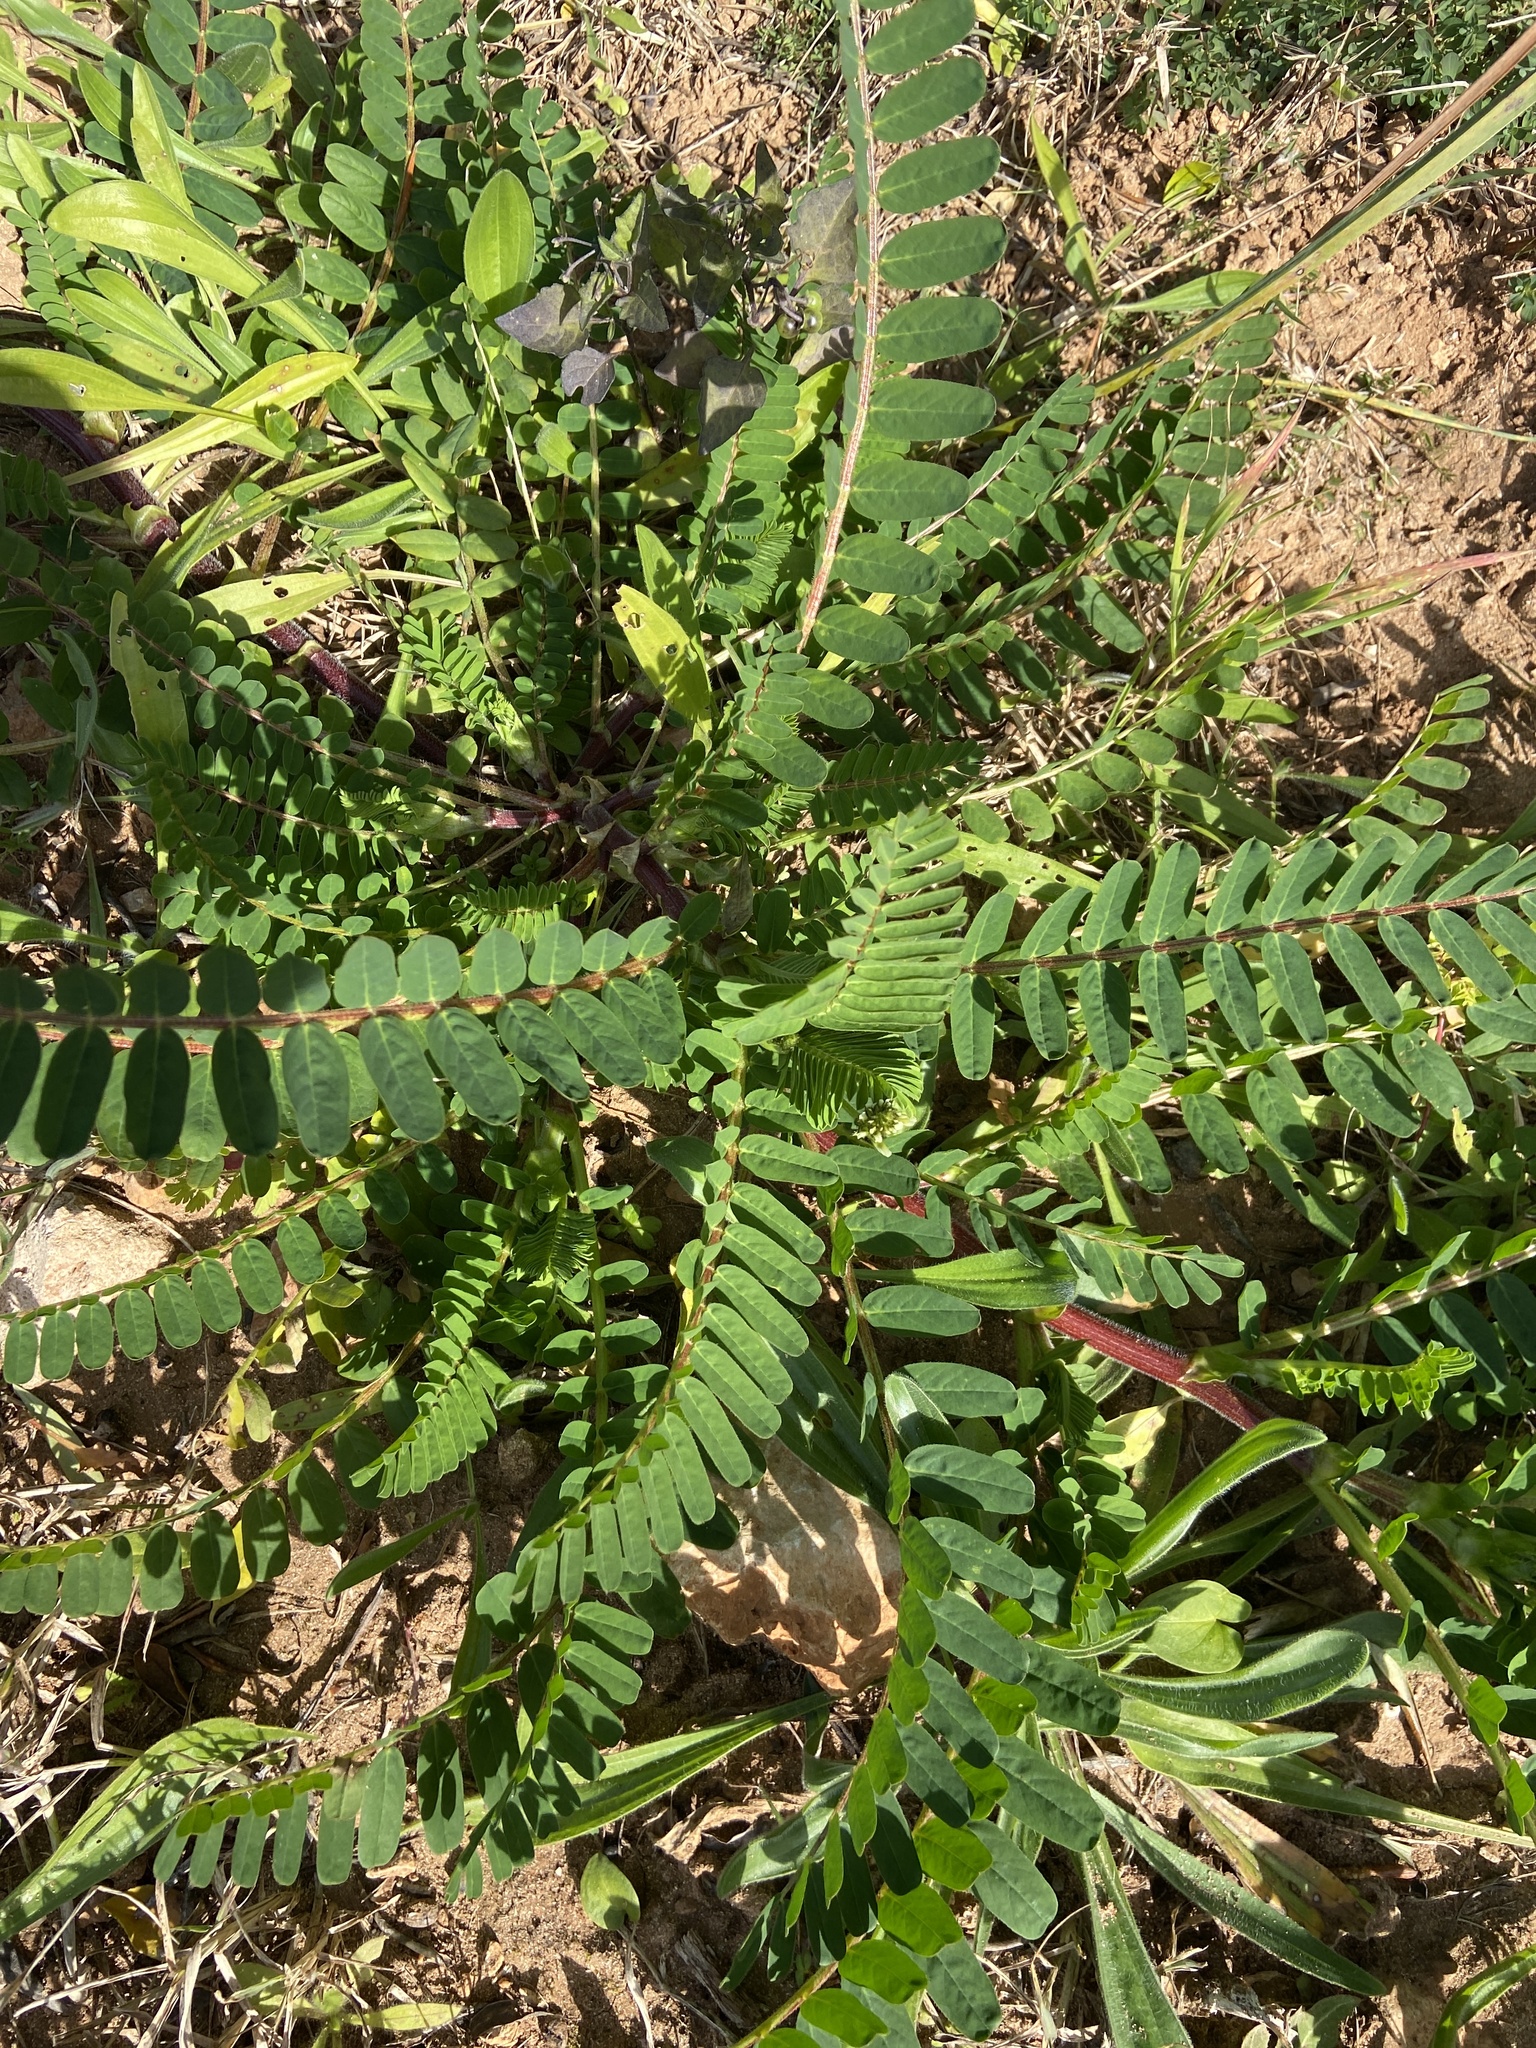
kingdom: Plantae
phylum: Tracheophyta
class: Magnoliopsida
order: Fabales
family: Fabaceae
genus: Astragalus
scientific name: Astragalus boeticus
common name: Milk-vetch
